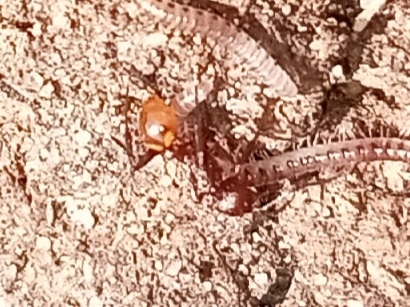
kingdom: Animalia
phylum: Arthropoda
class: Insecta
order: Hymenoptera
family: Formicidae
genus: Aphaenogaster
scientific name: Aphaenogaster tennesseensis
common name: Tennessee thread-waisted ant
